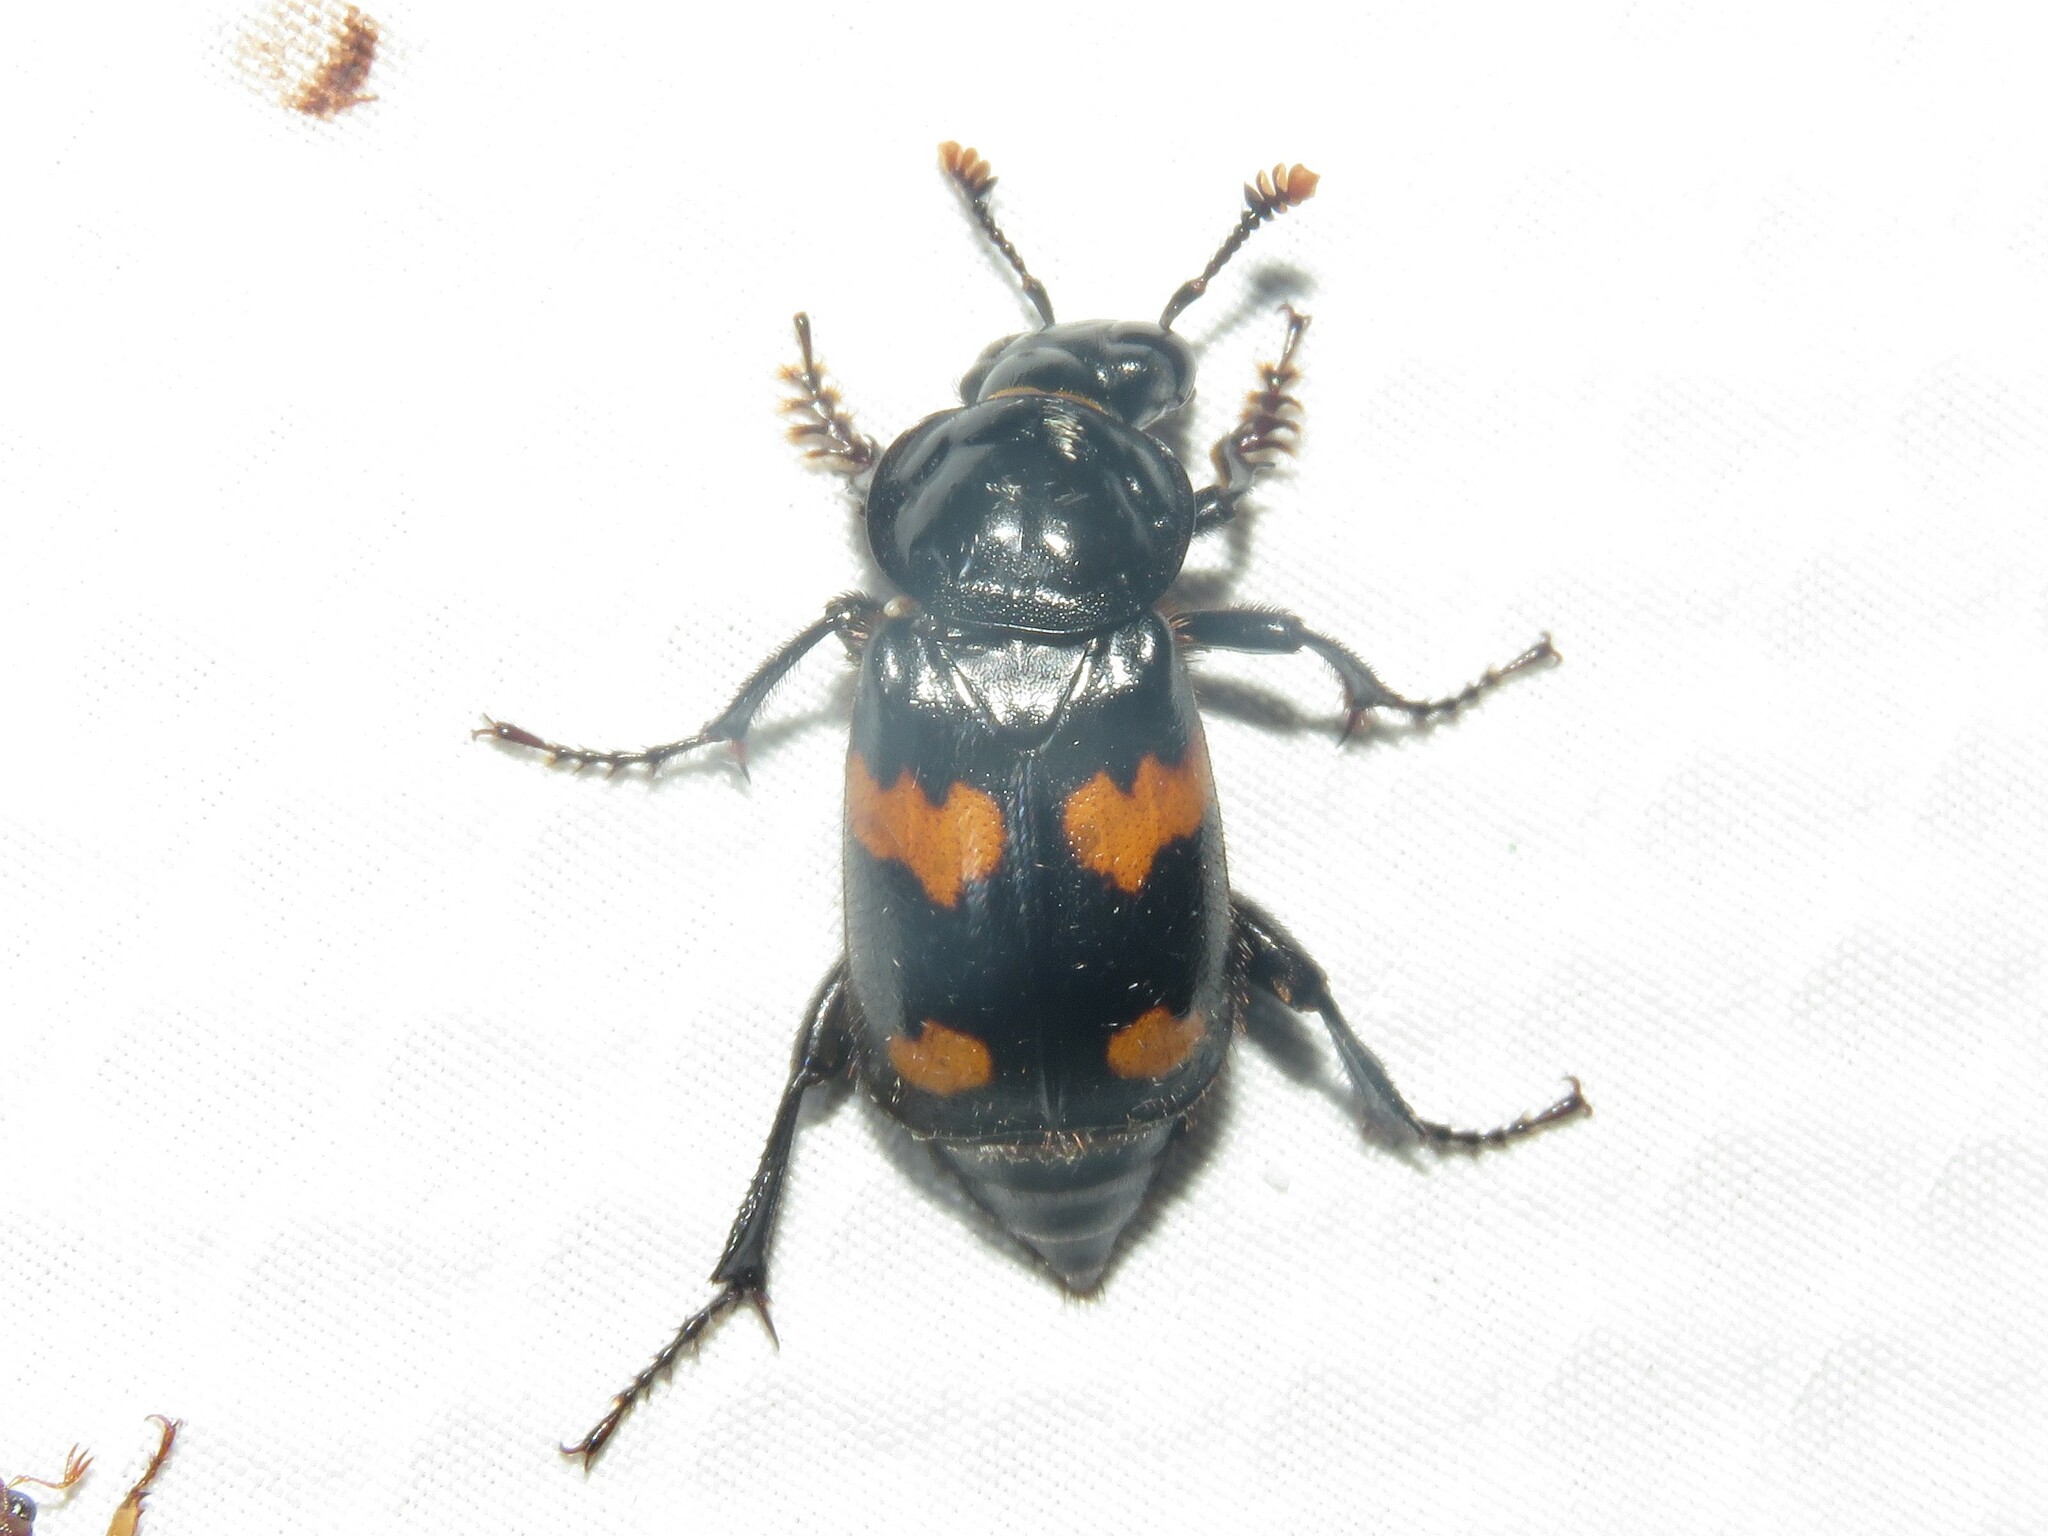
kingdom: Animalia
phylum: Arthropoda
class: Insecta
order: Coleoptera
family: Staphylinidae
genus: Nicrophorus
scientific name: Nicrophorus orbicollis
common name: Roundneck sexton beetle
